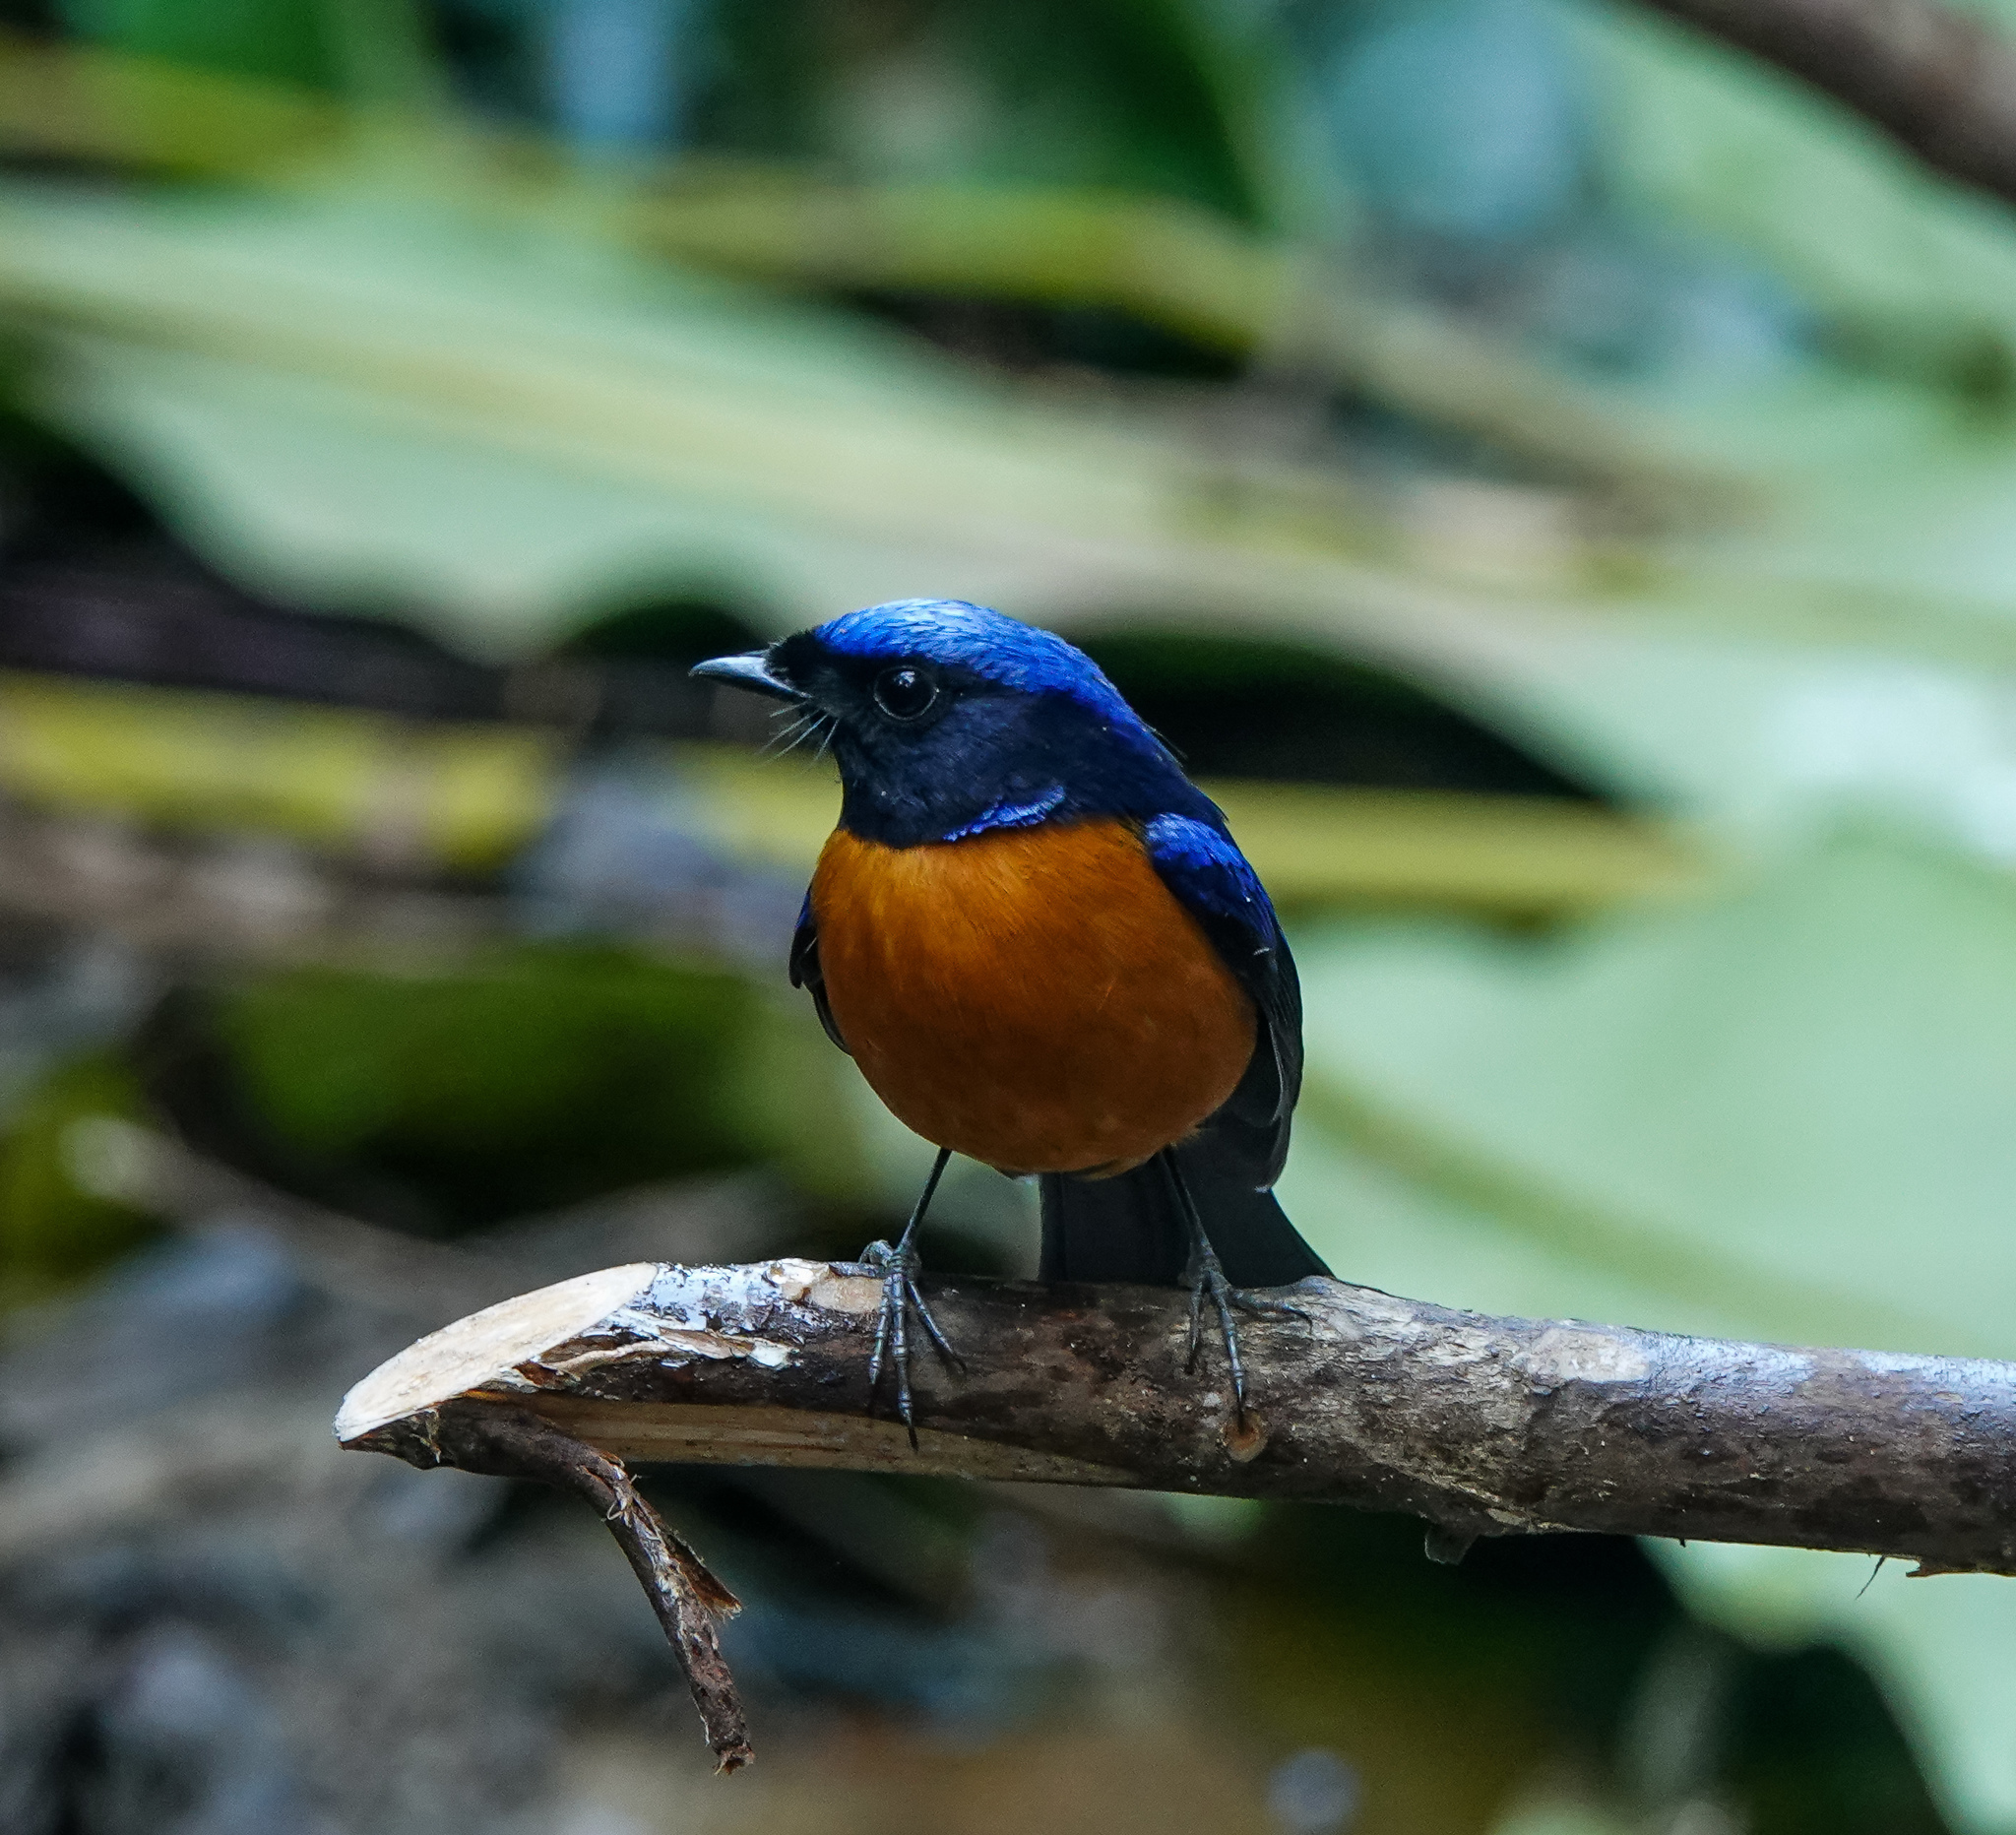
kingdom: Animalia
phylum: Chordata
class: Aves
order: Passeriformes
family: Muscicapidae
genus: Niltava
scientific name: Niltava sundara
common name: Rufous-bellied niltava
